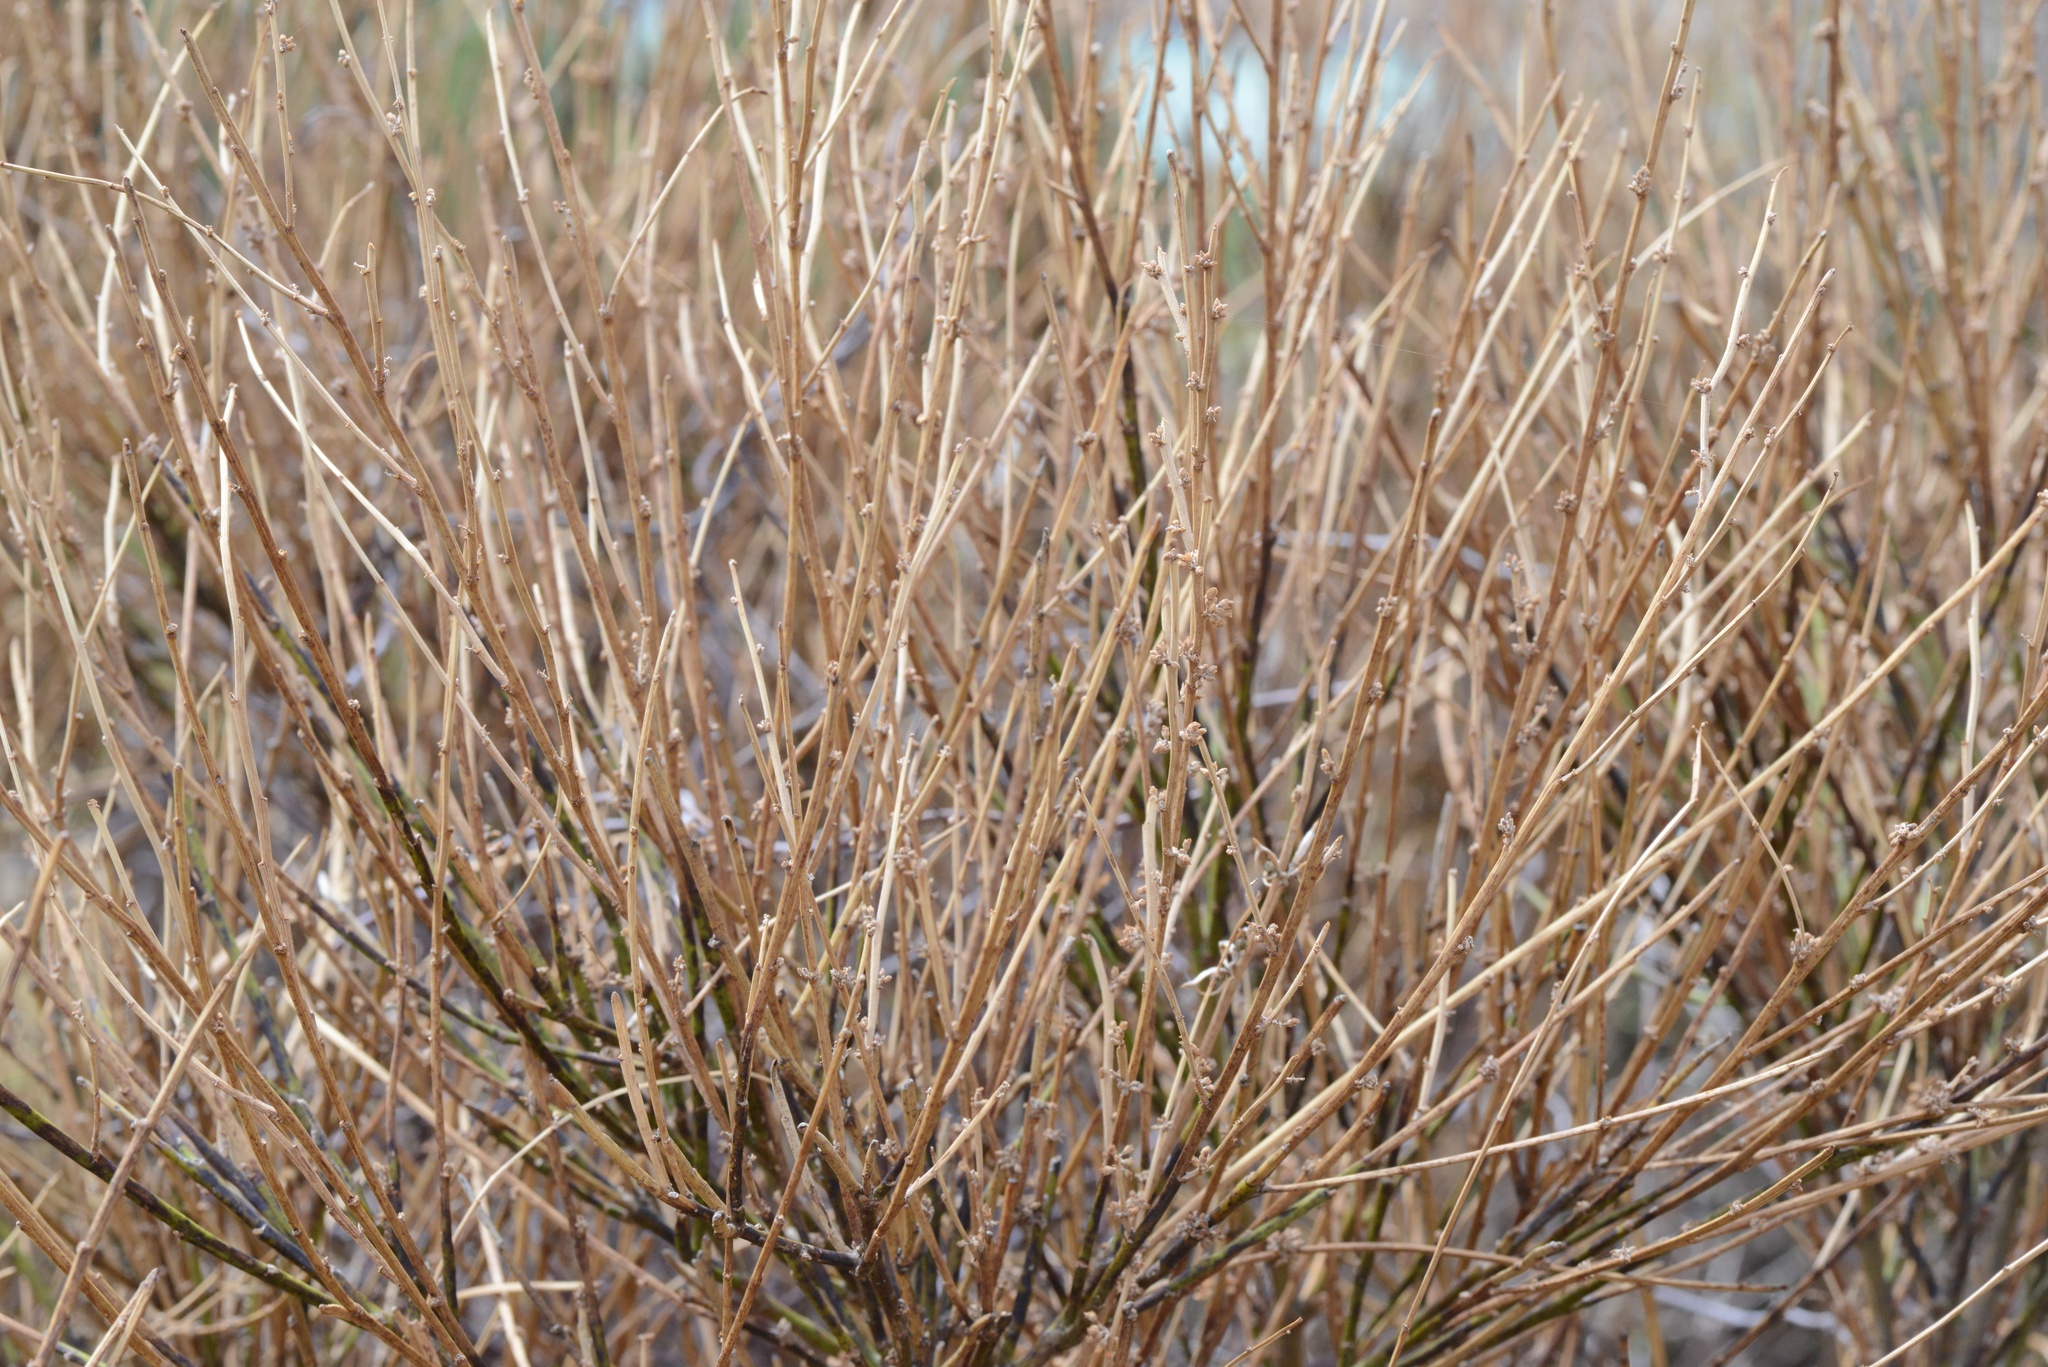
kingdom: Plantae
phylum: Tracheophyta
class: Magnoliopsida
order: Fabales
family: Fabaceae
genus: Carmichaelia
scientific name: Carmichaelia australis
